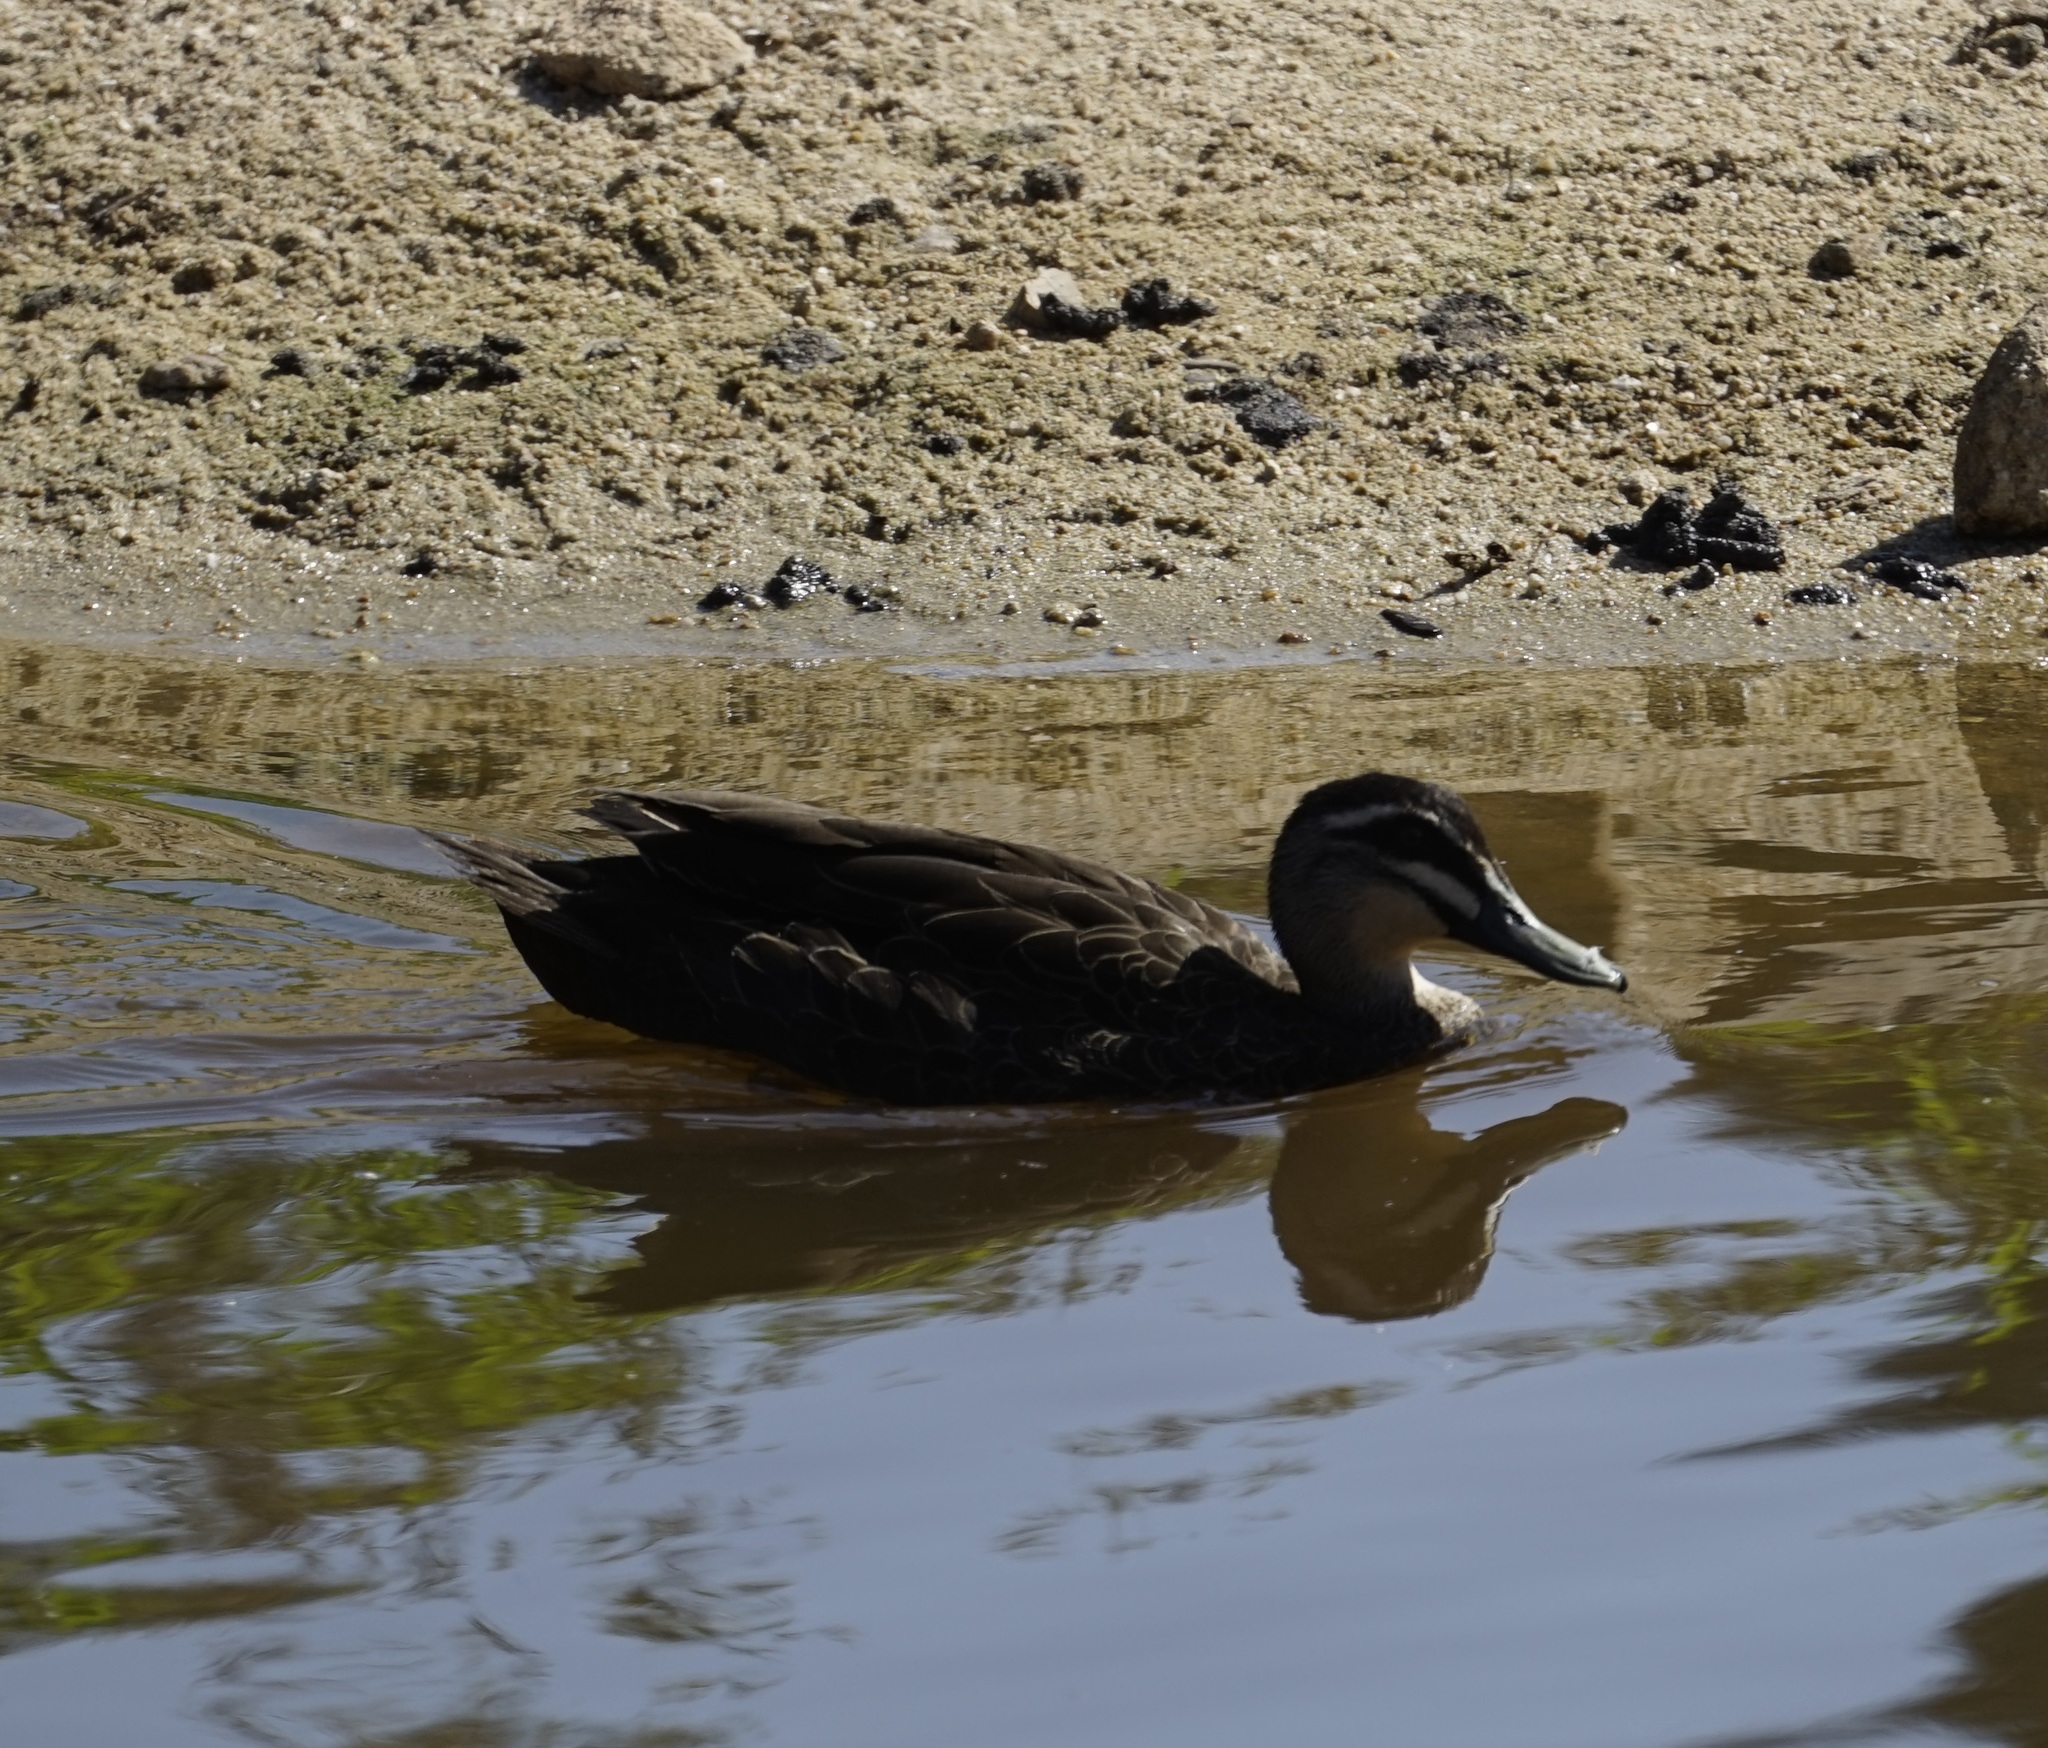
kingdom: Animalia
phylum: Chordata
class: Aves
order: Anseriformes
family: Anatidae
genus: Anas
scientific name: Anas superciliosa
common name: Pacific black duck
